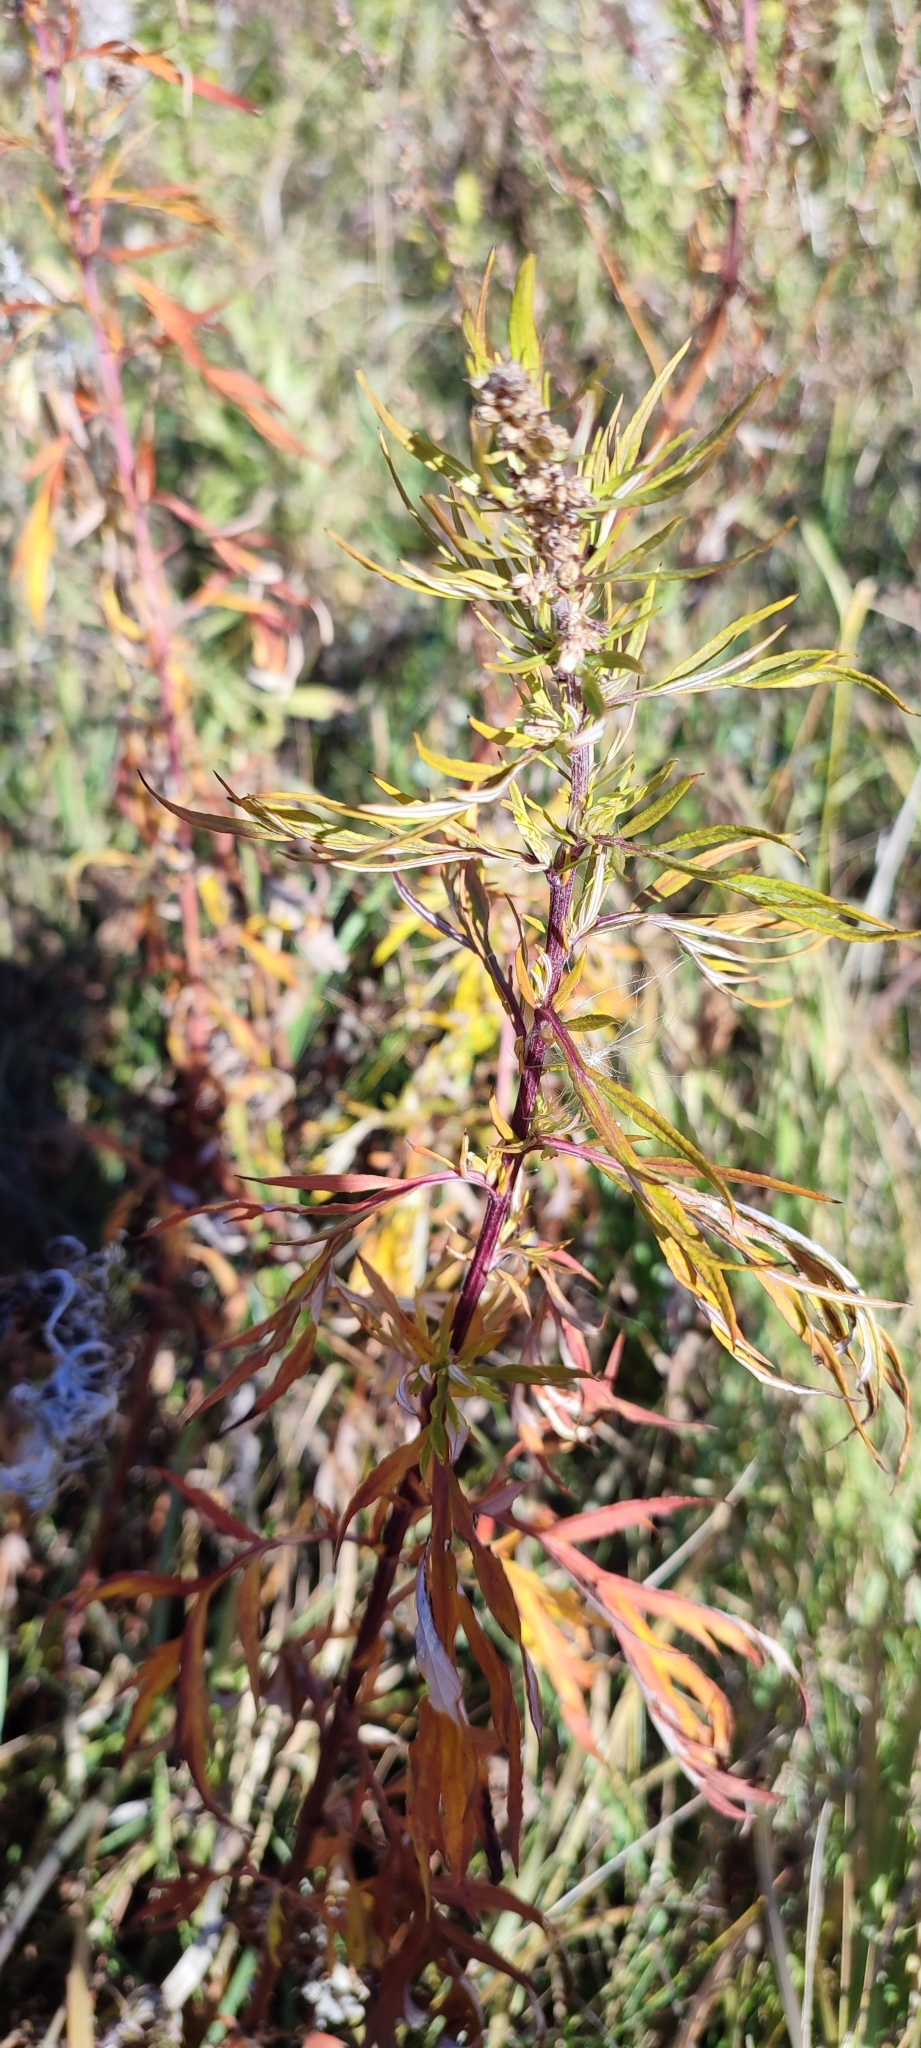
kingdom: Plantae
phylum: Tracheophyta
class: Magnoliopsida
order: Asterales
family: Asteraceae
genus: Artemisia
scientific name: Artemisia vulgaris
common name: Mugwort
